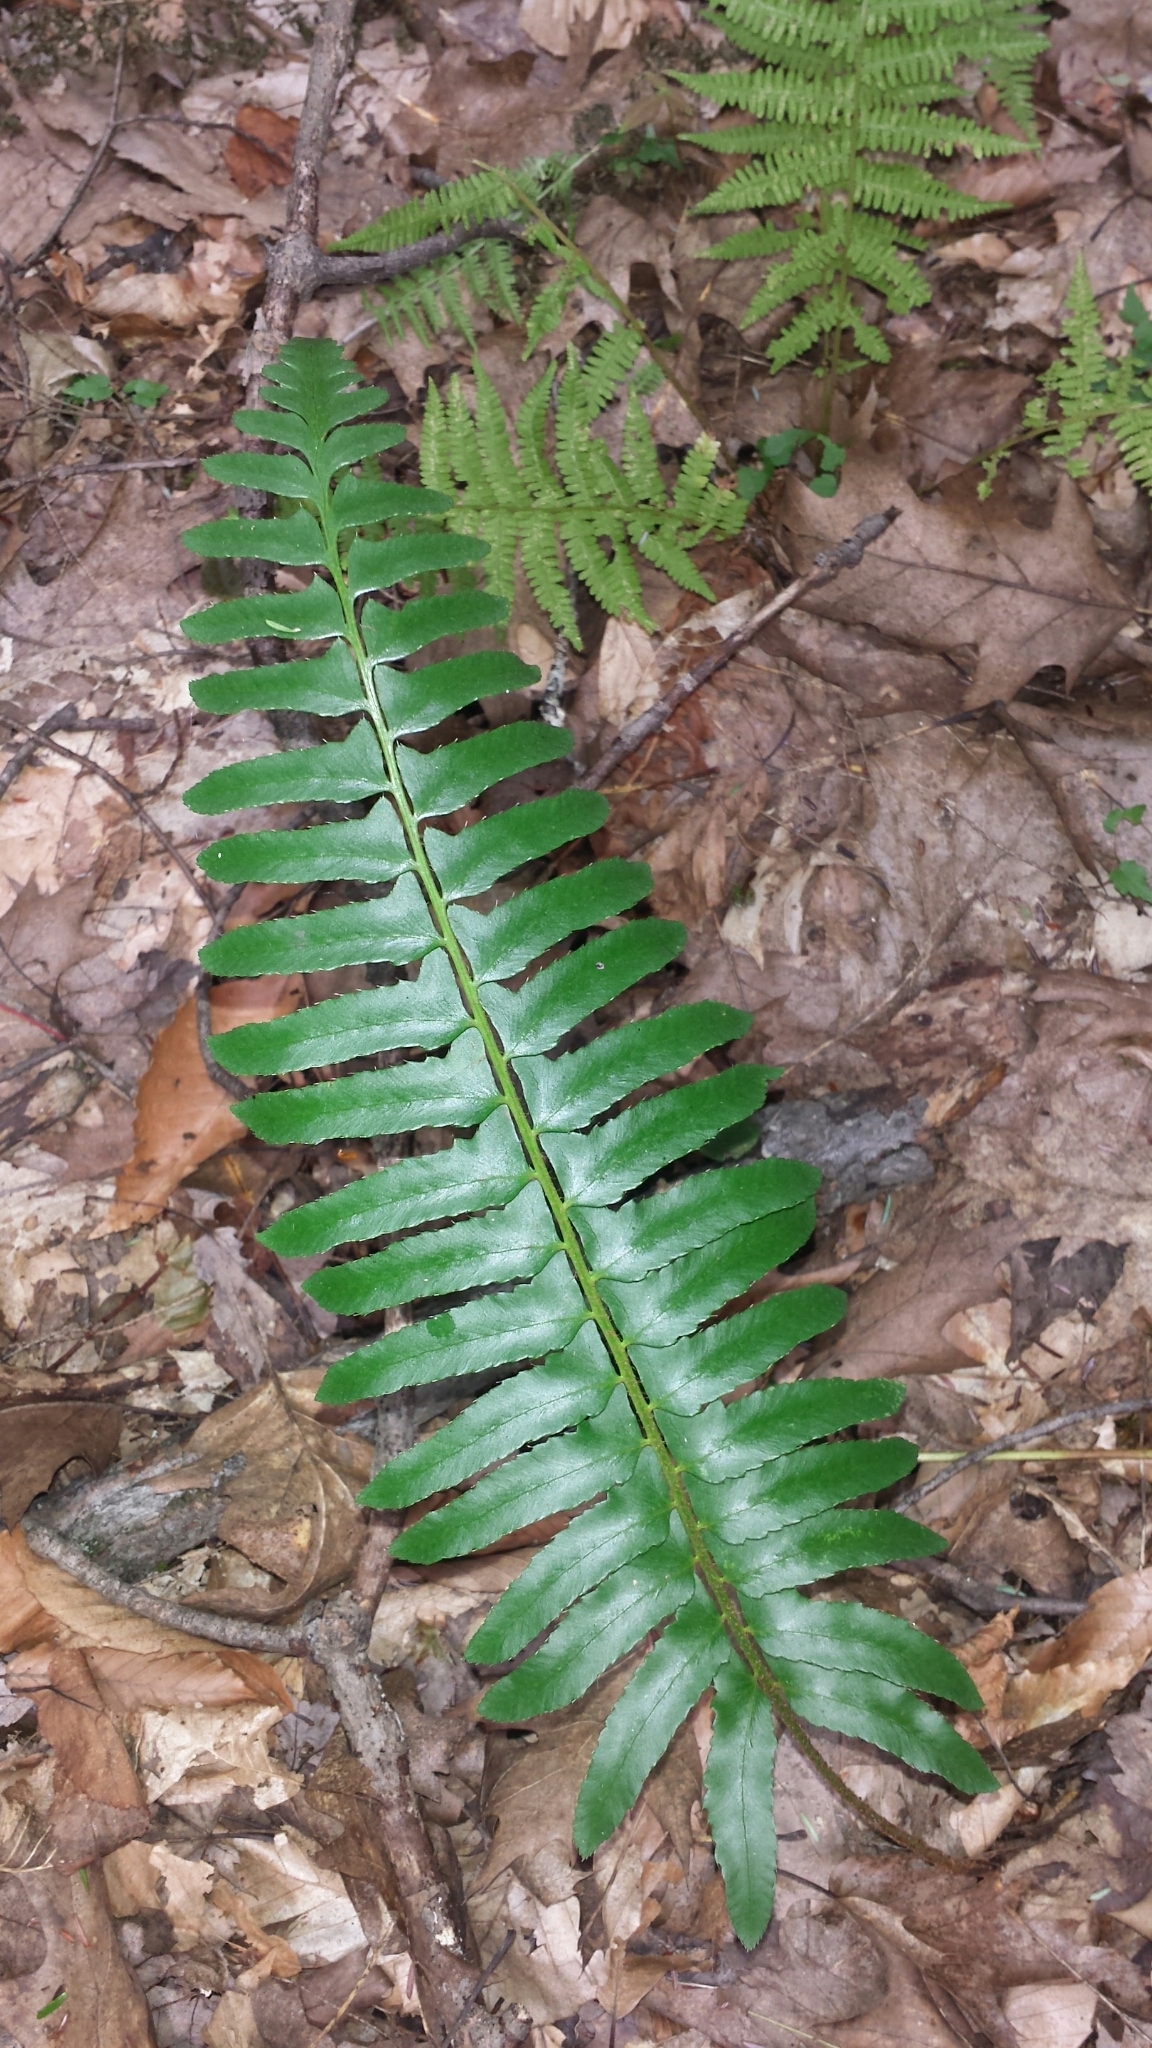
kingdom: Plantae
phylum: Tracheophyta
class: Polypodiopsida
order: Polypodiales
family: Dryopteridaceae
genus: Polystichum
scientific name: Polystichum acrostichoides
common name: Christmas fern
